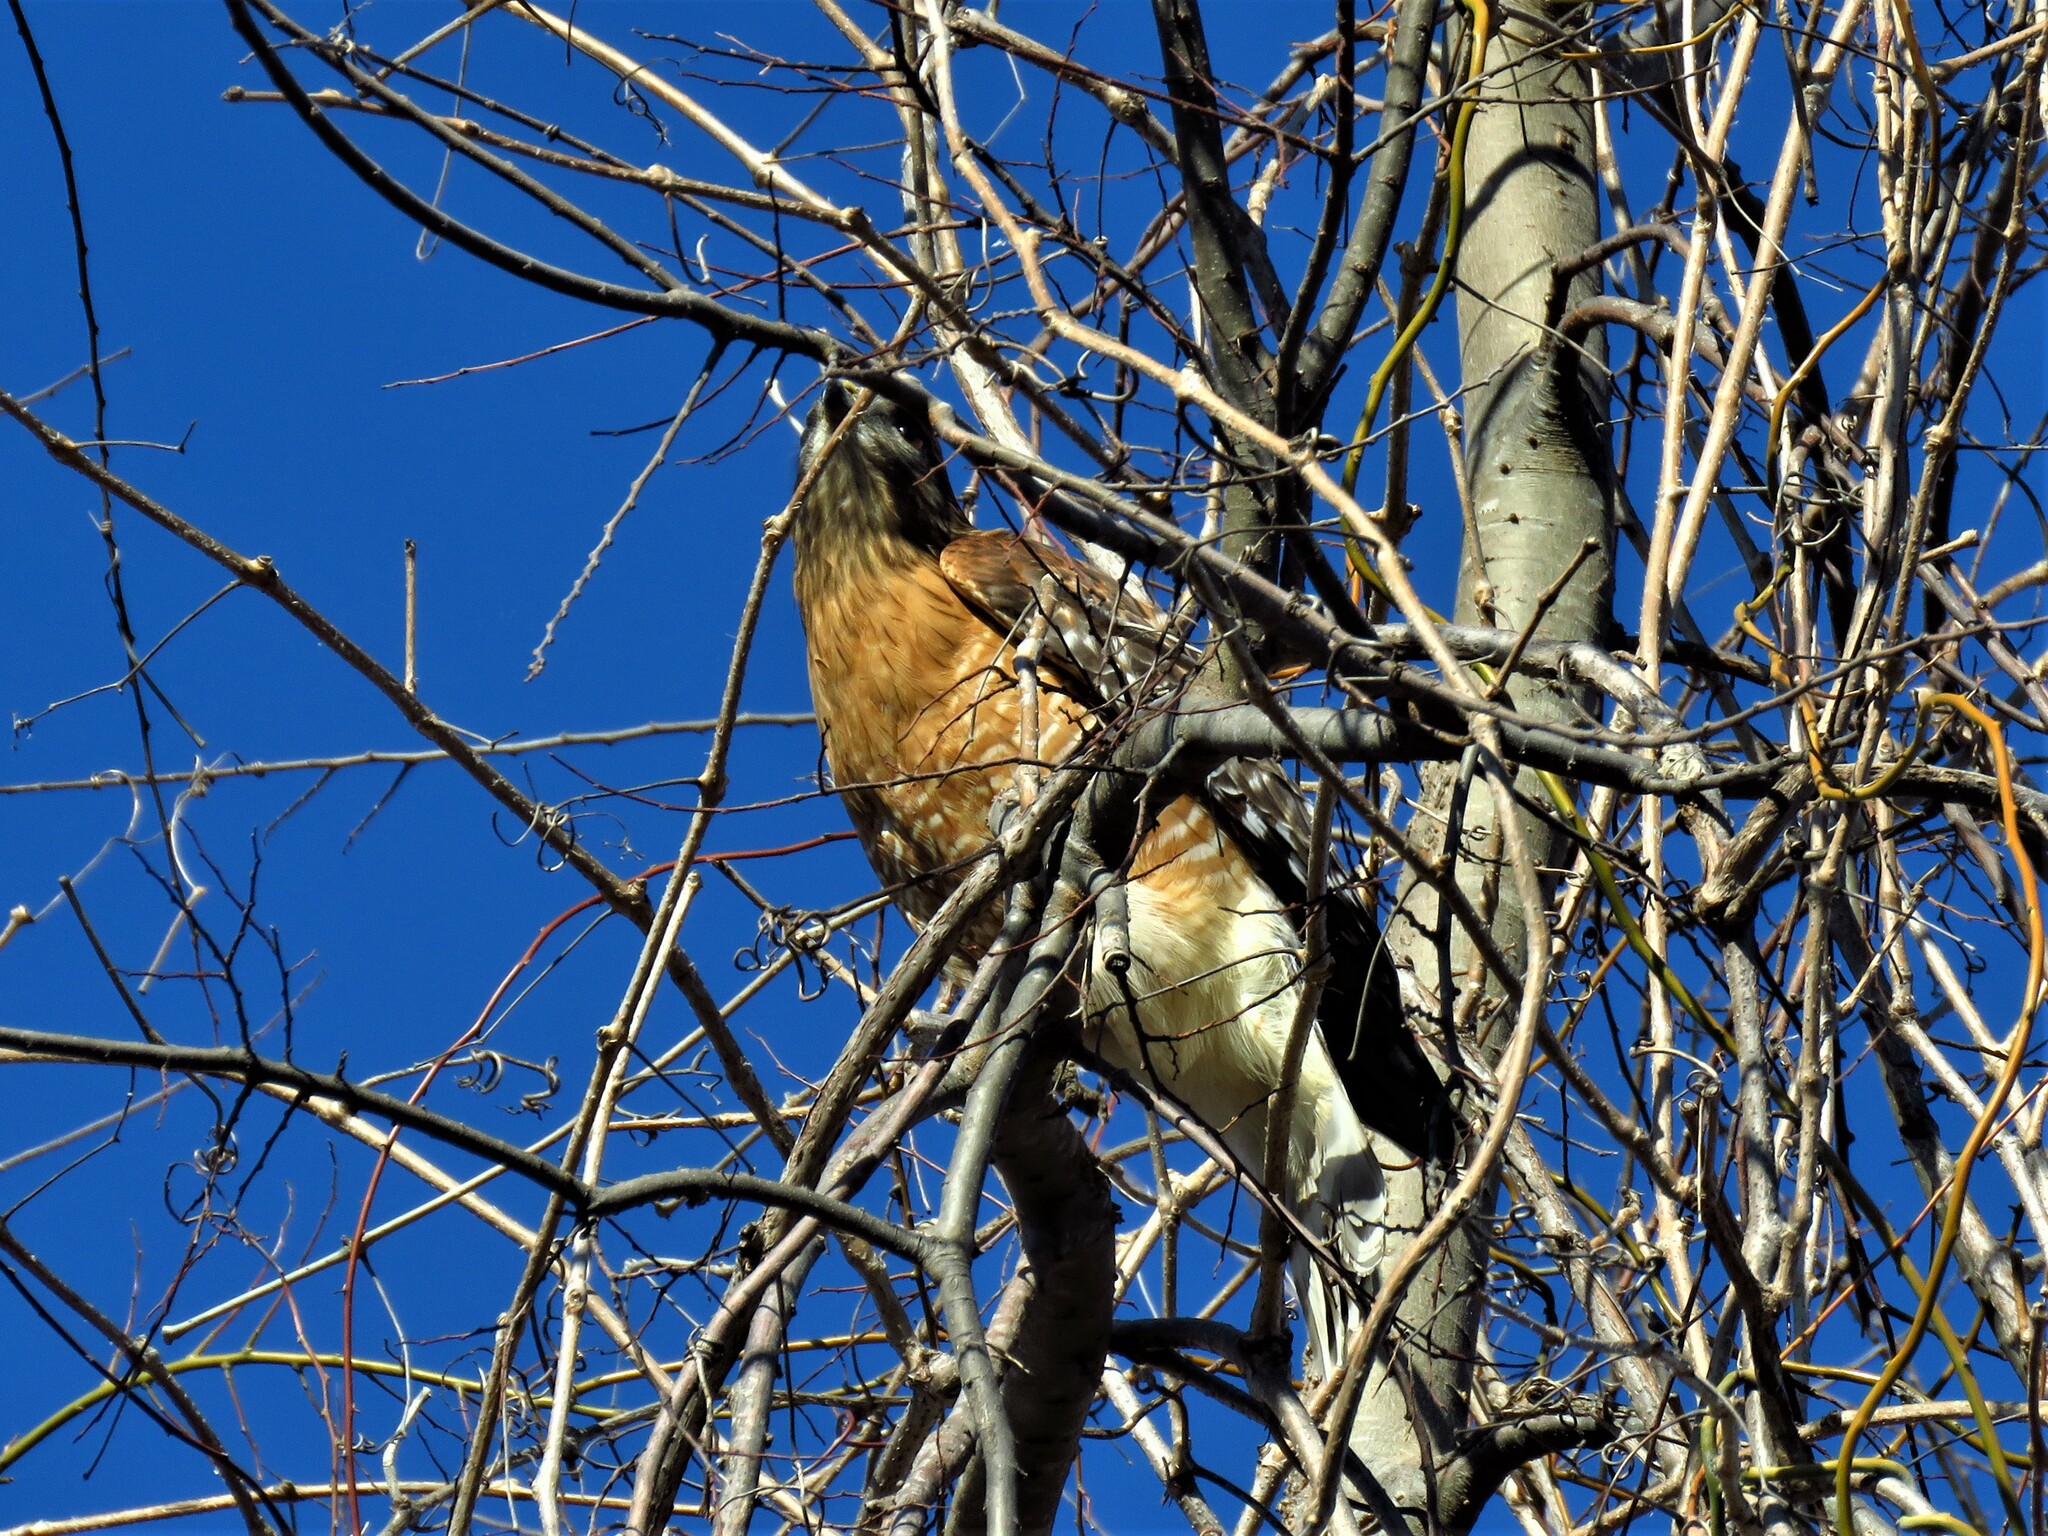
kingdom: Animalia
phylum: Chordata
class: Aves
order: Accipitriformes
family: Accipitridae
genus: Buteo
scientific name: Buteo lineatus
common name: Red-shouldered hawk
